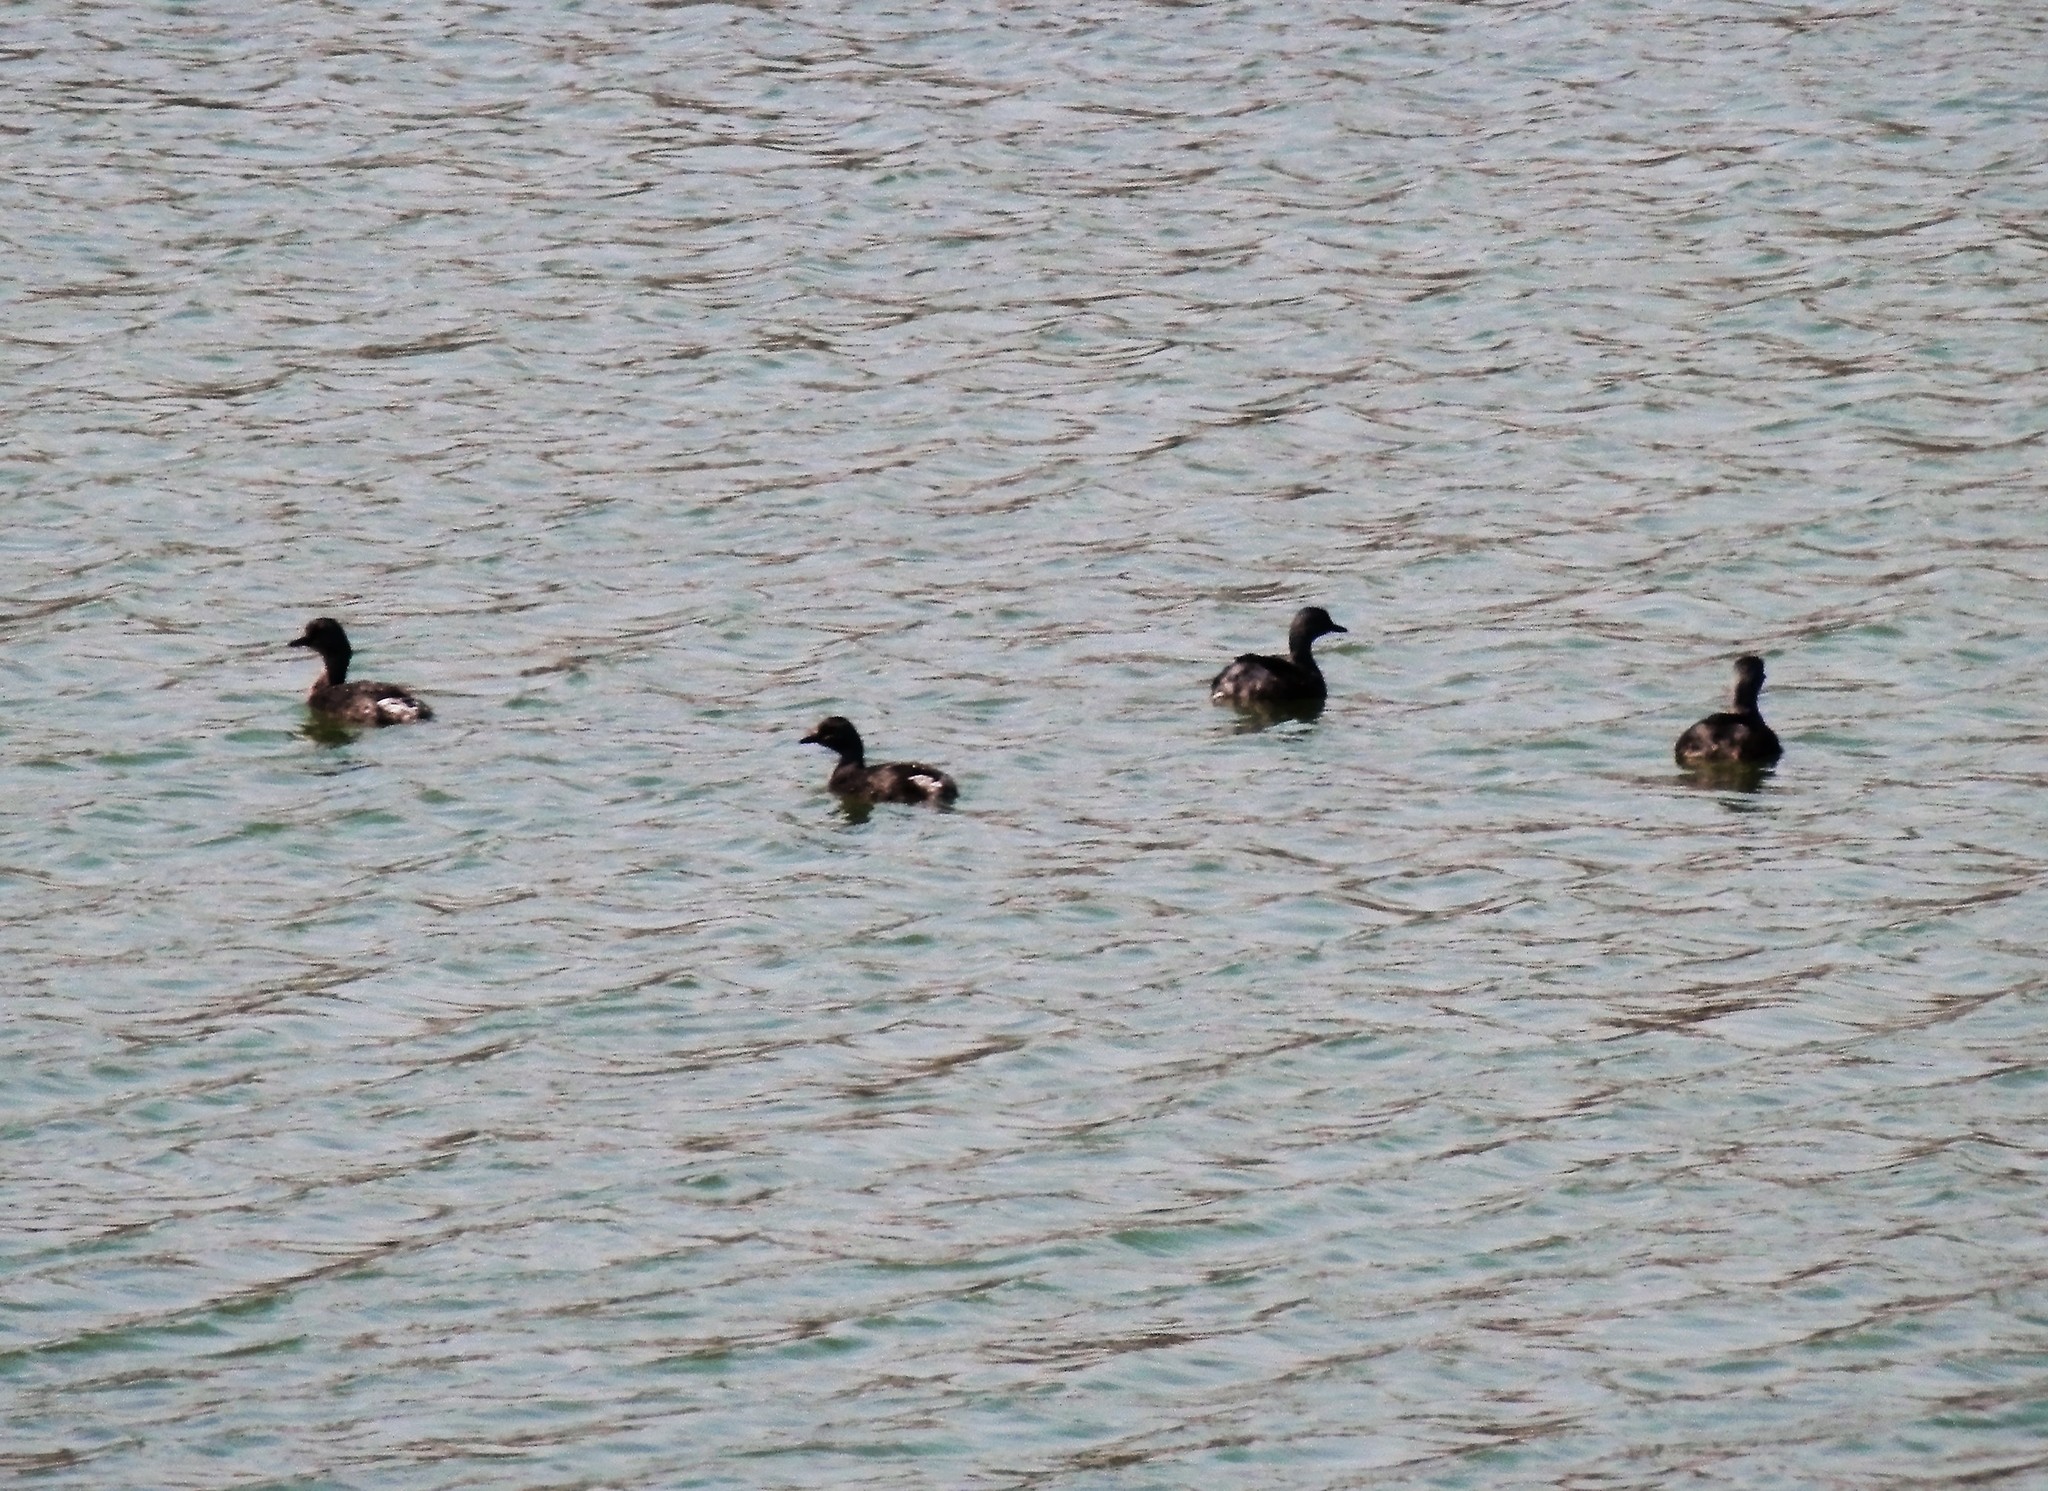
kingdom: Animalia
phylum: Chordata
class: Aves
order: Podicipediformes
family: Podicipedidae
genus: Tachybaptus
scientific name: Tachybaptus dominicus
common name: Least grebe
